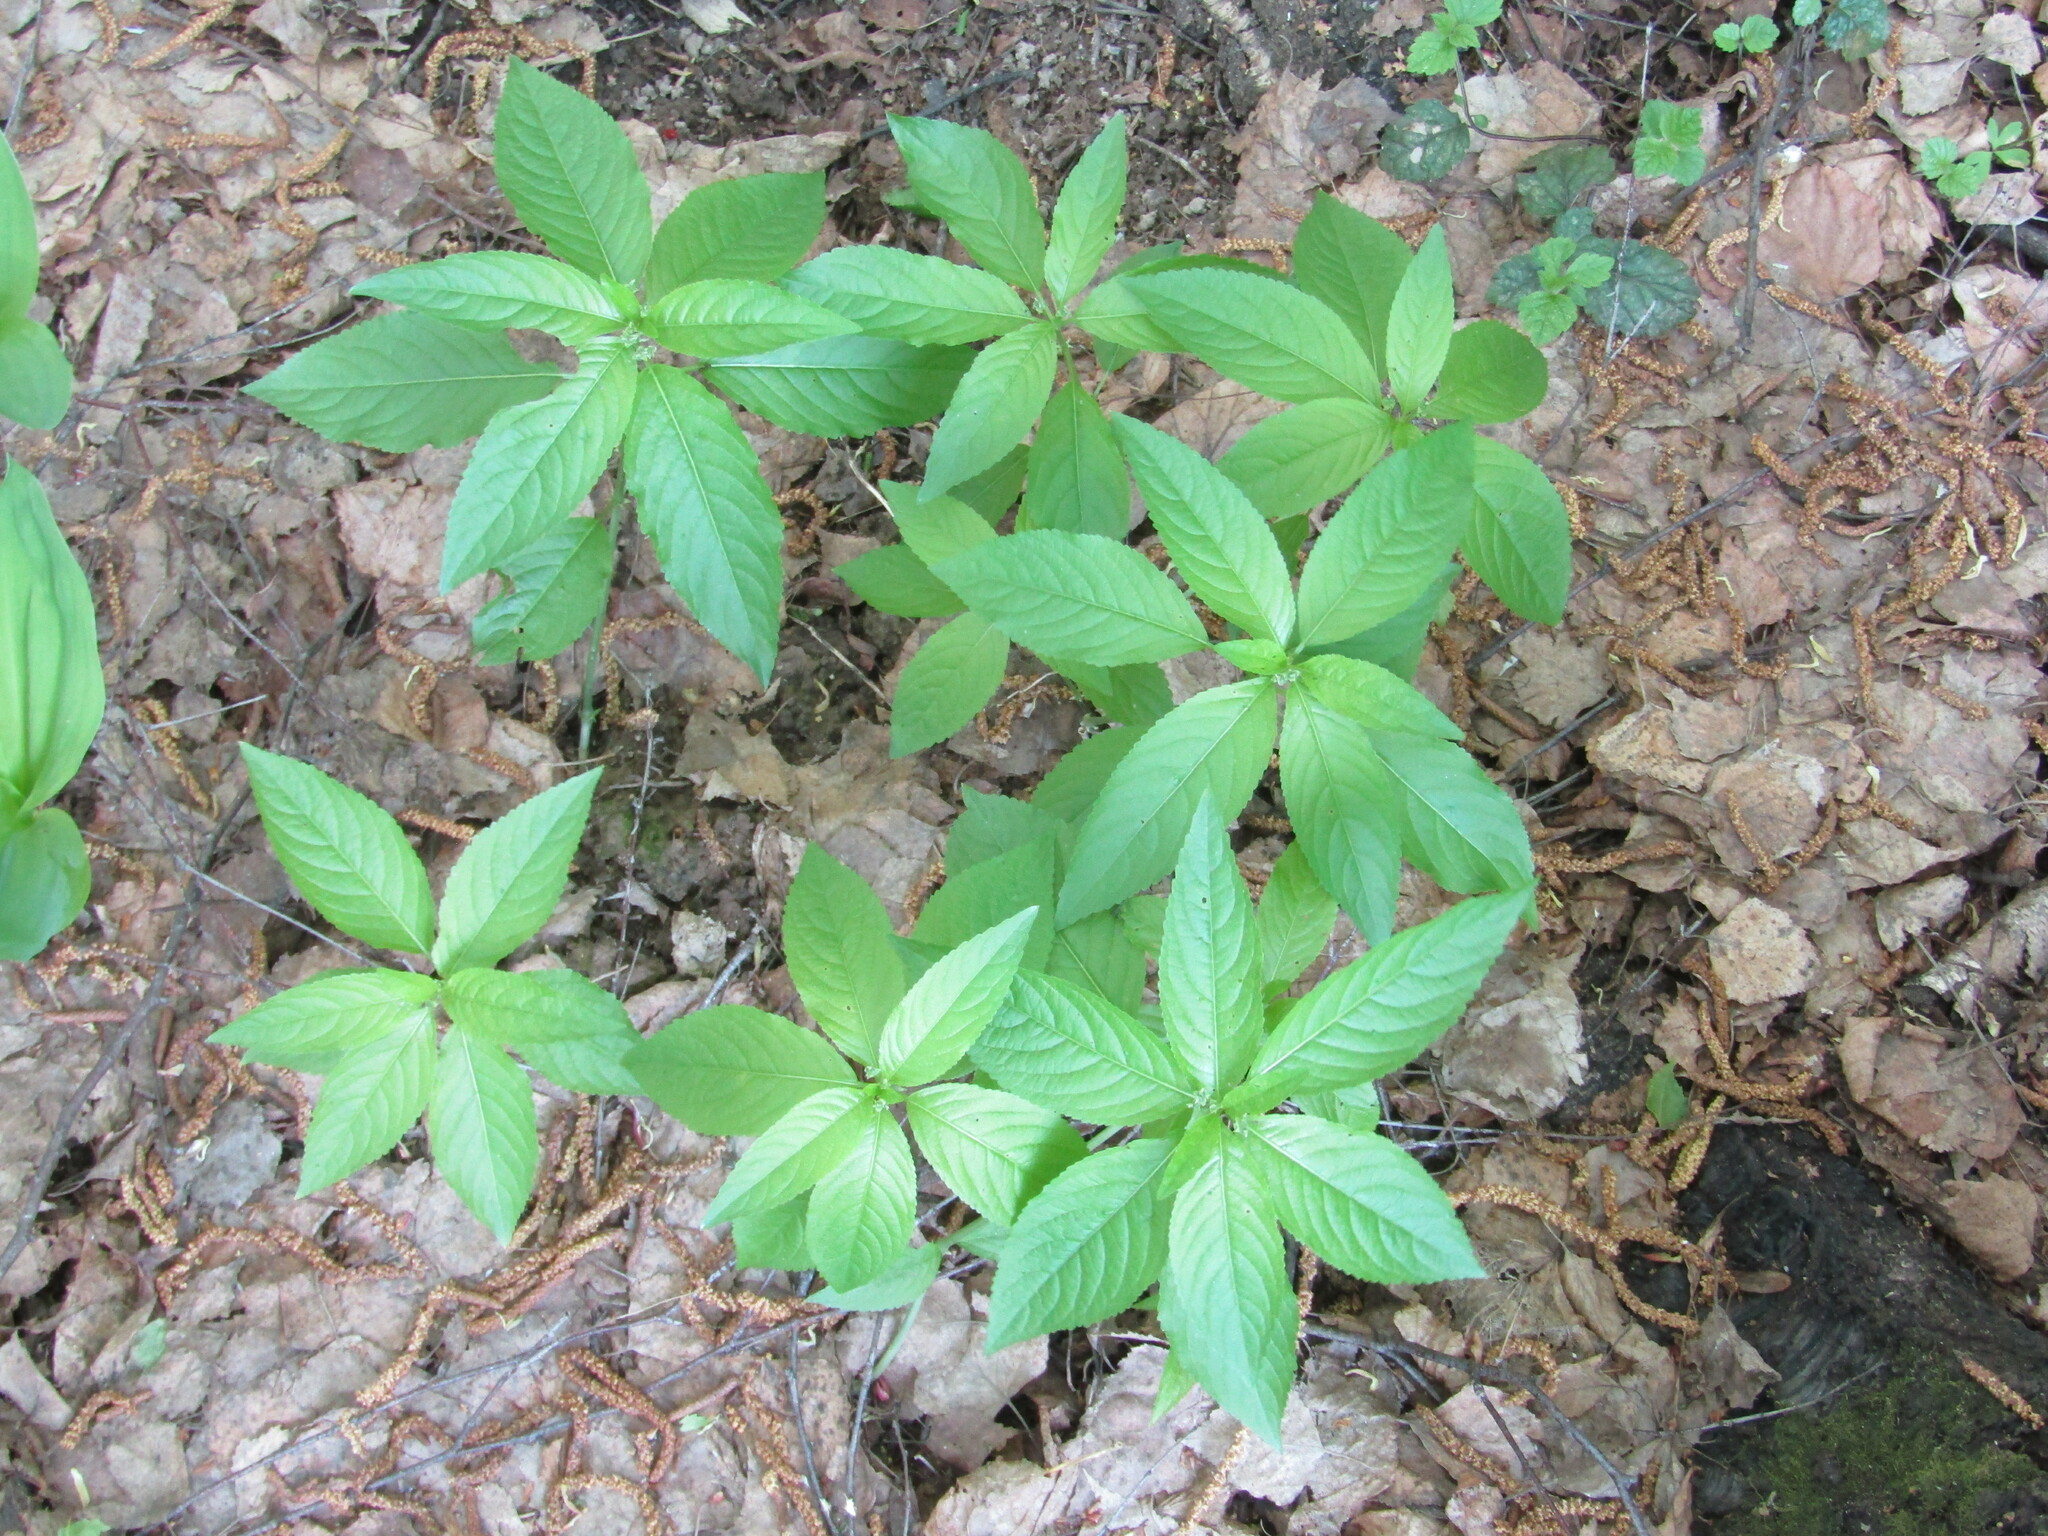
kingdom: Plantae
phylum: Tracheophyta
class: Magnoliopsida
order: Malpighiales
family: Euphorbiaceae
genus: Mercurialis
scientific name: Mercurialis perennis
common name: Dog mercury
